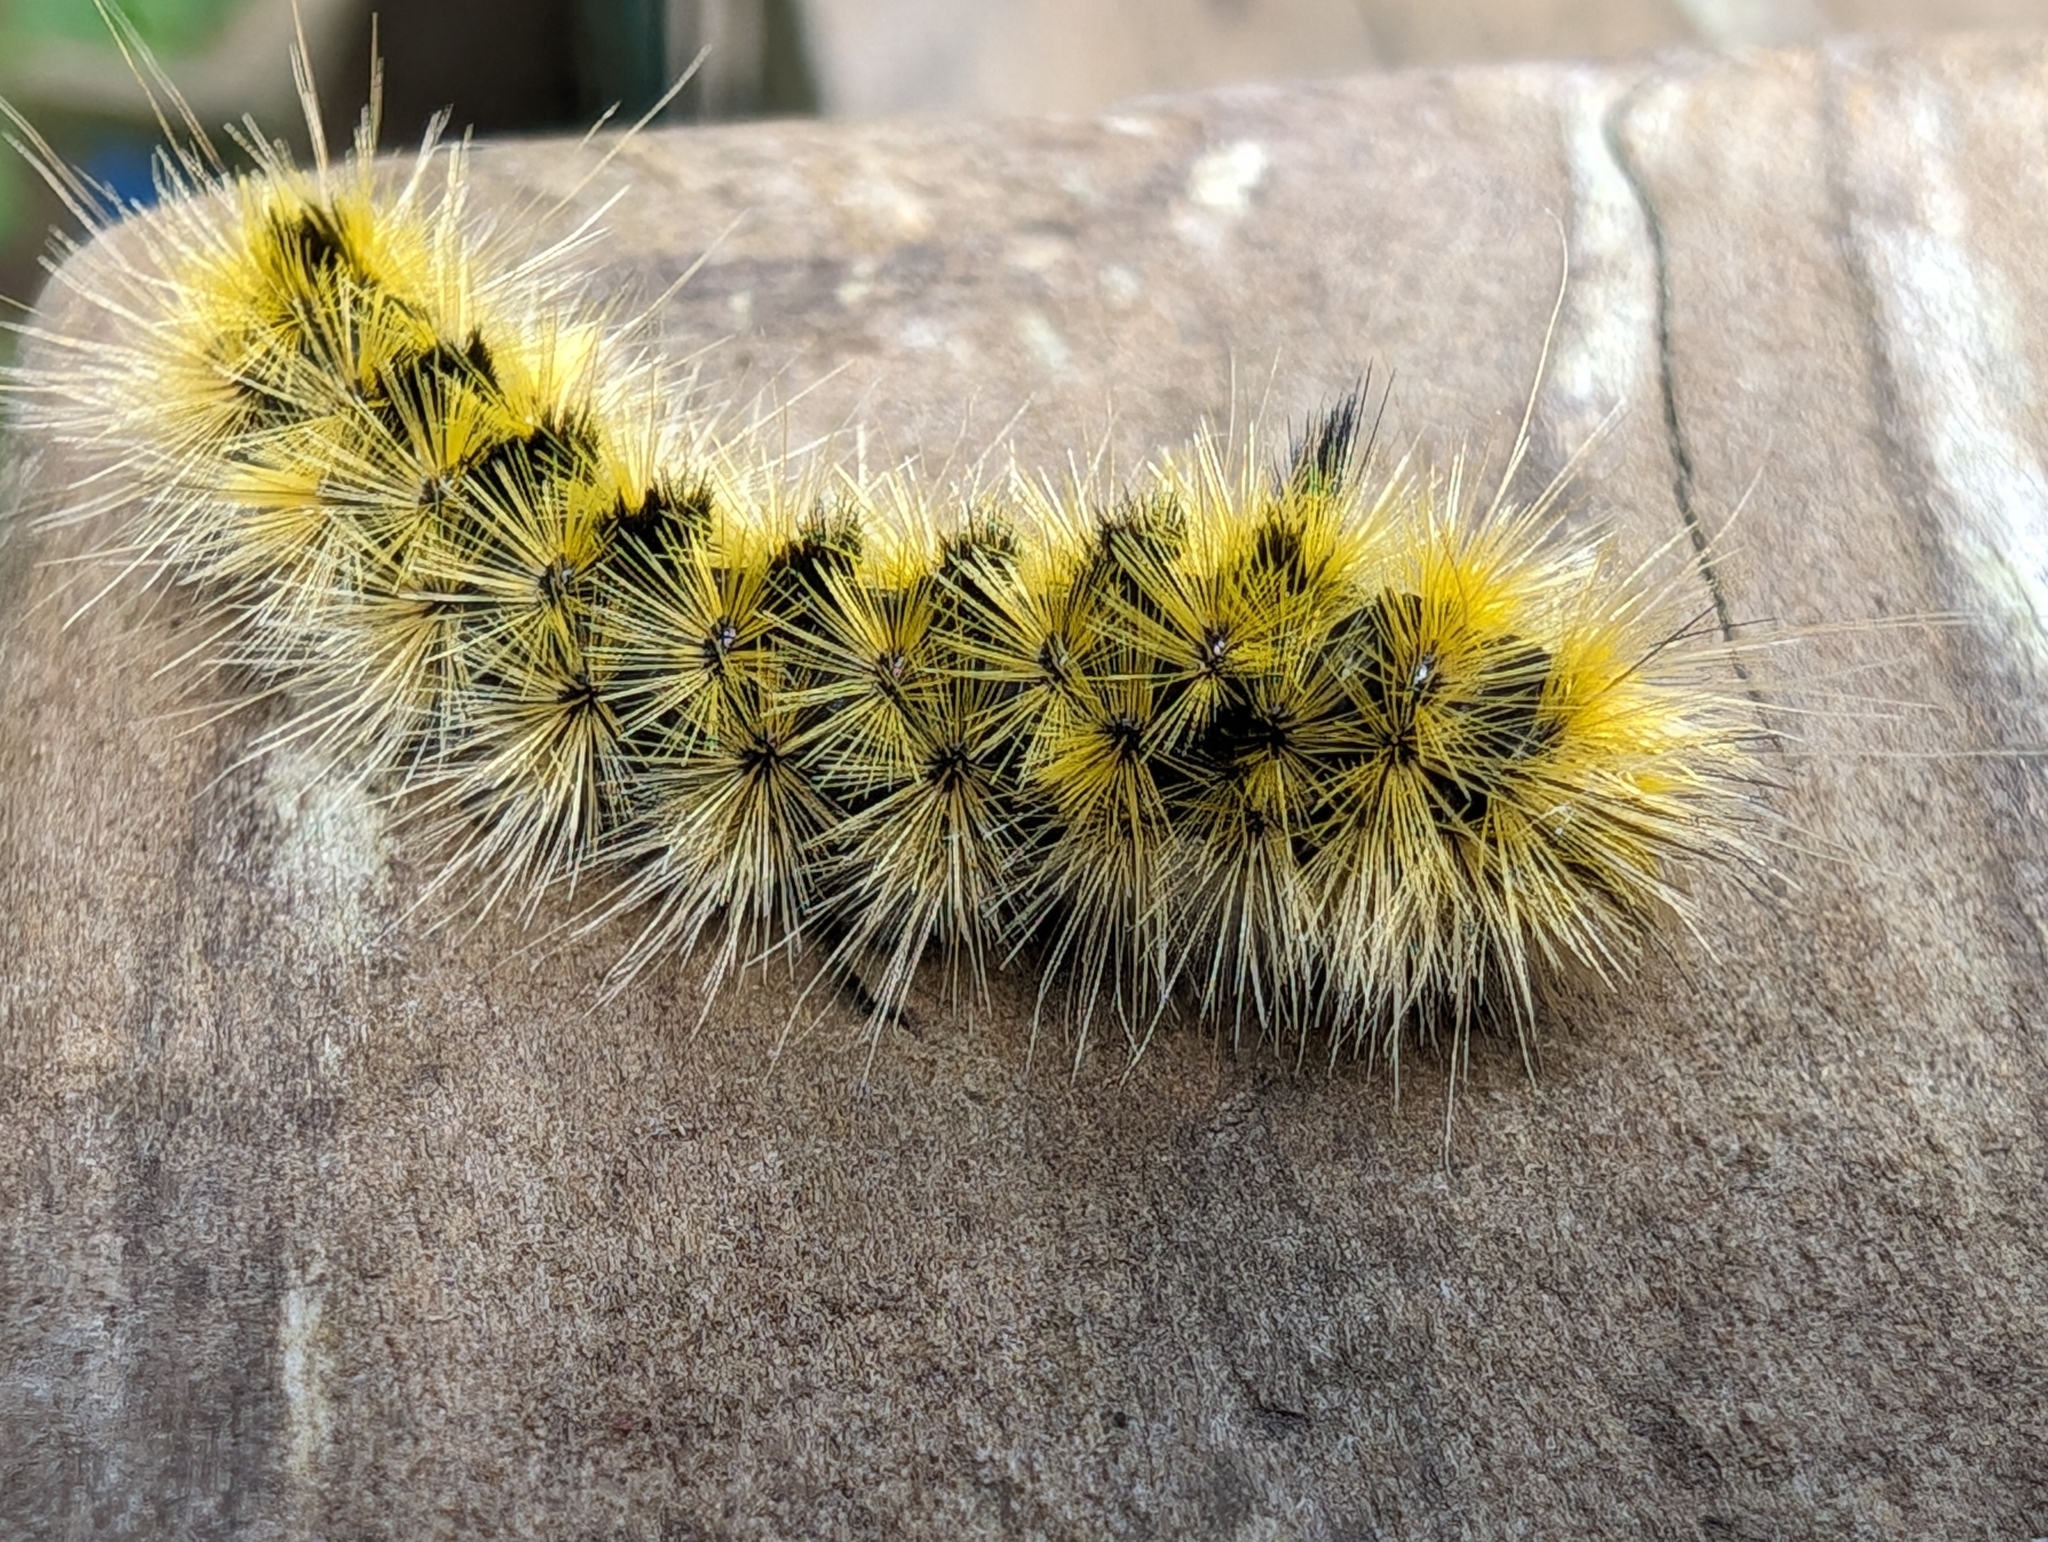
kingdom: Animalia
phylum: Arthropoda
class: Insecta
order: Lepidoptera
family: Erebidae
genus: Lophocampa
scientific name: Lophocampa argentata
